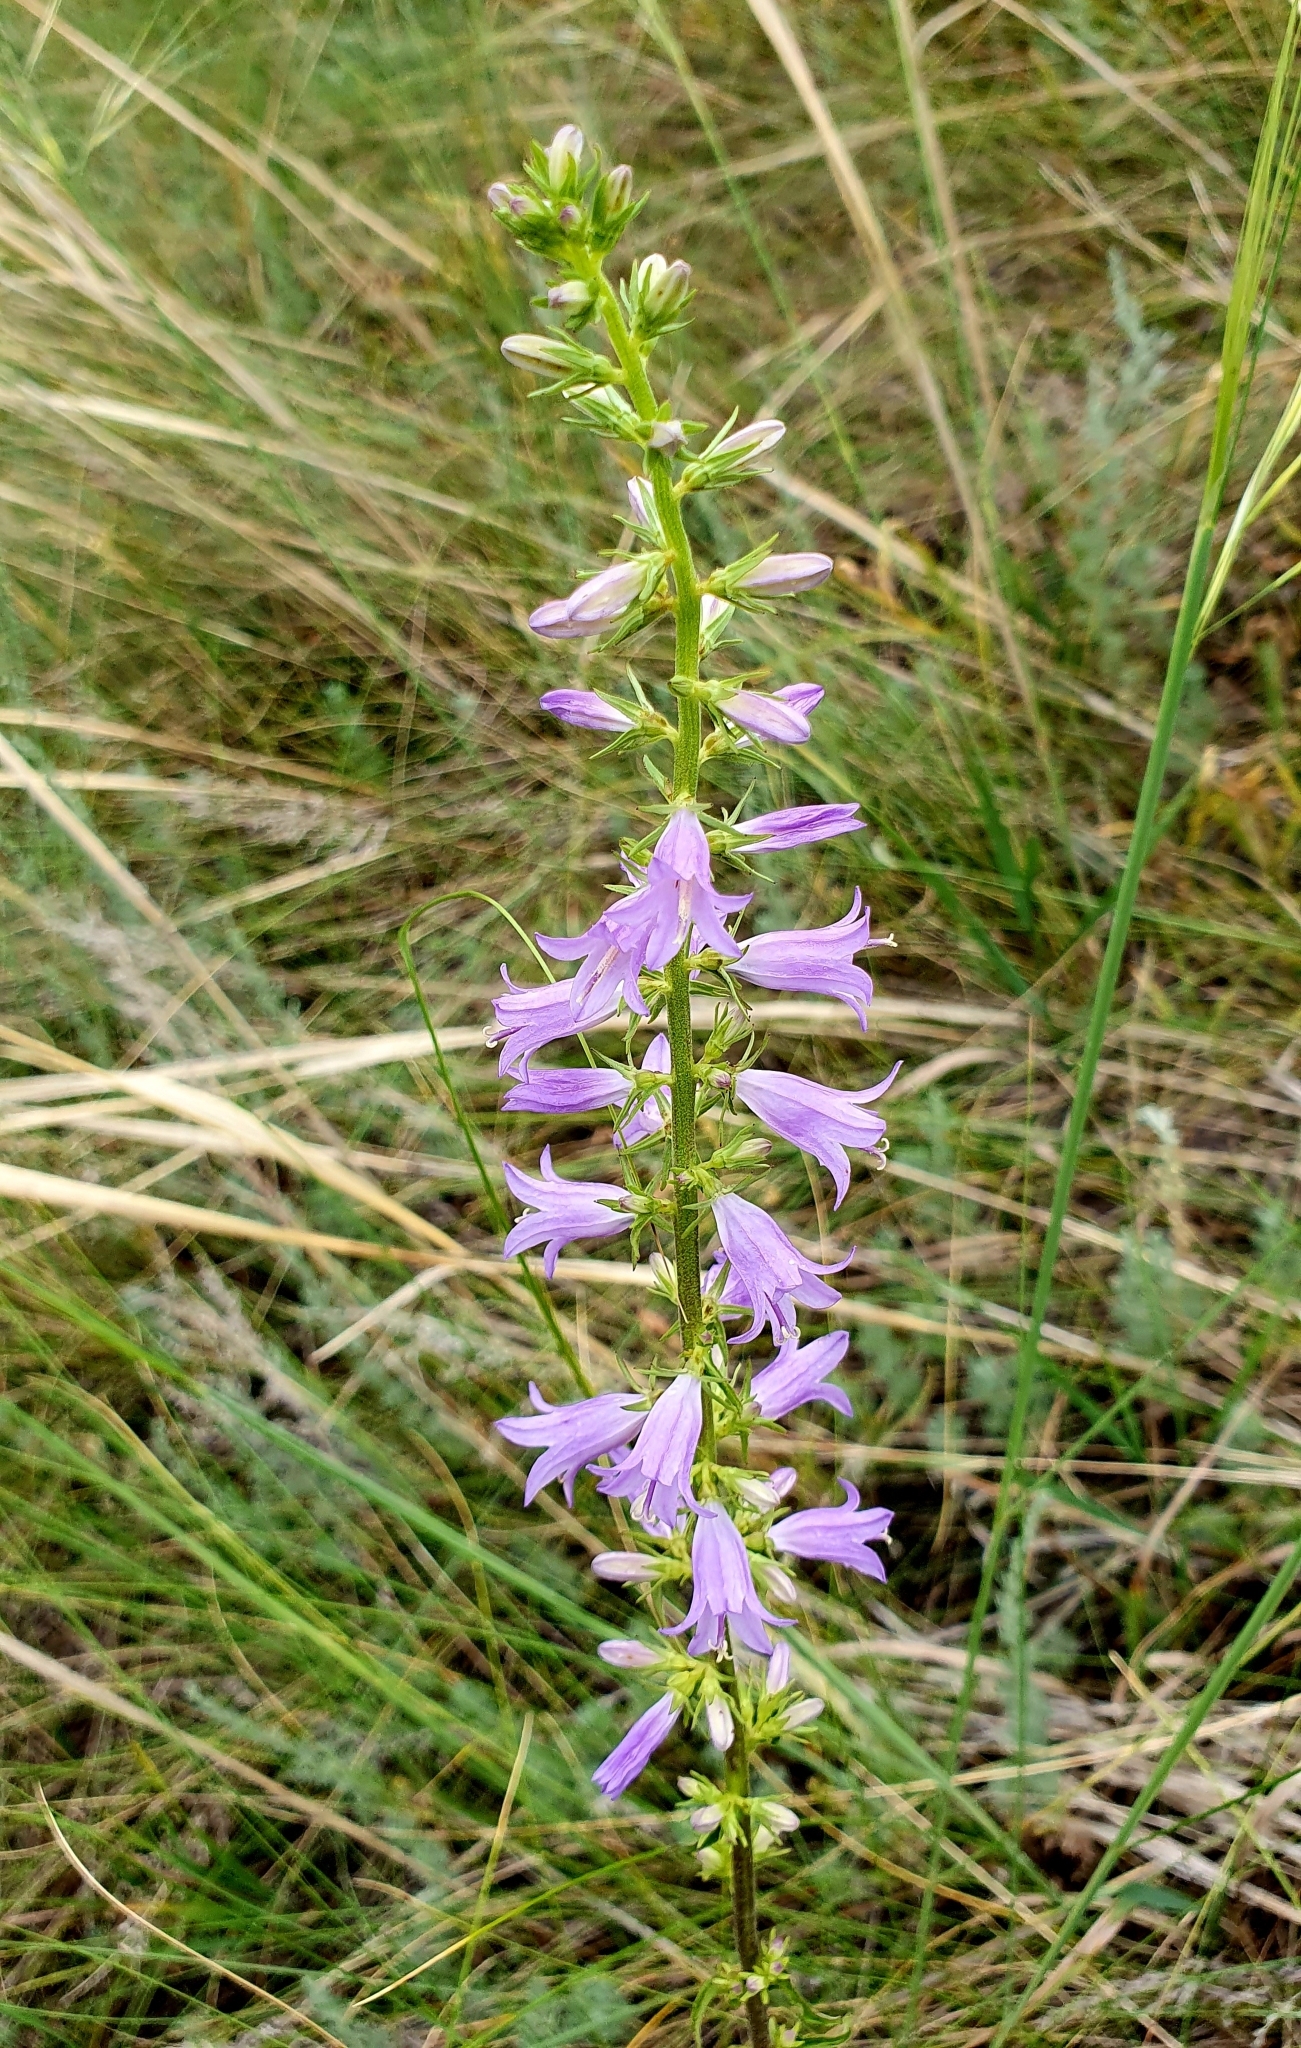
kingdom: Plantae
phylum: Tracheophyta
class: Magnoliopsida
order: Asterales
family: Campanulaceae
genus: Campanula
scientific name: Campanula bononiensis
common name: Pale bellflower
